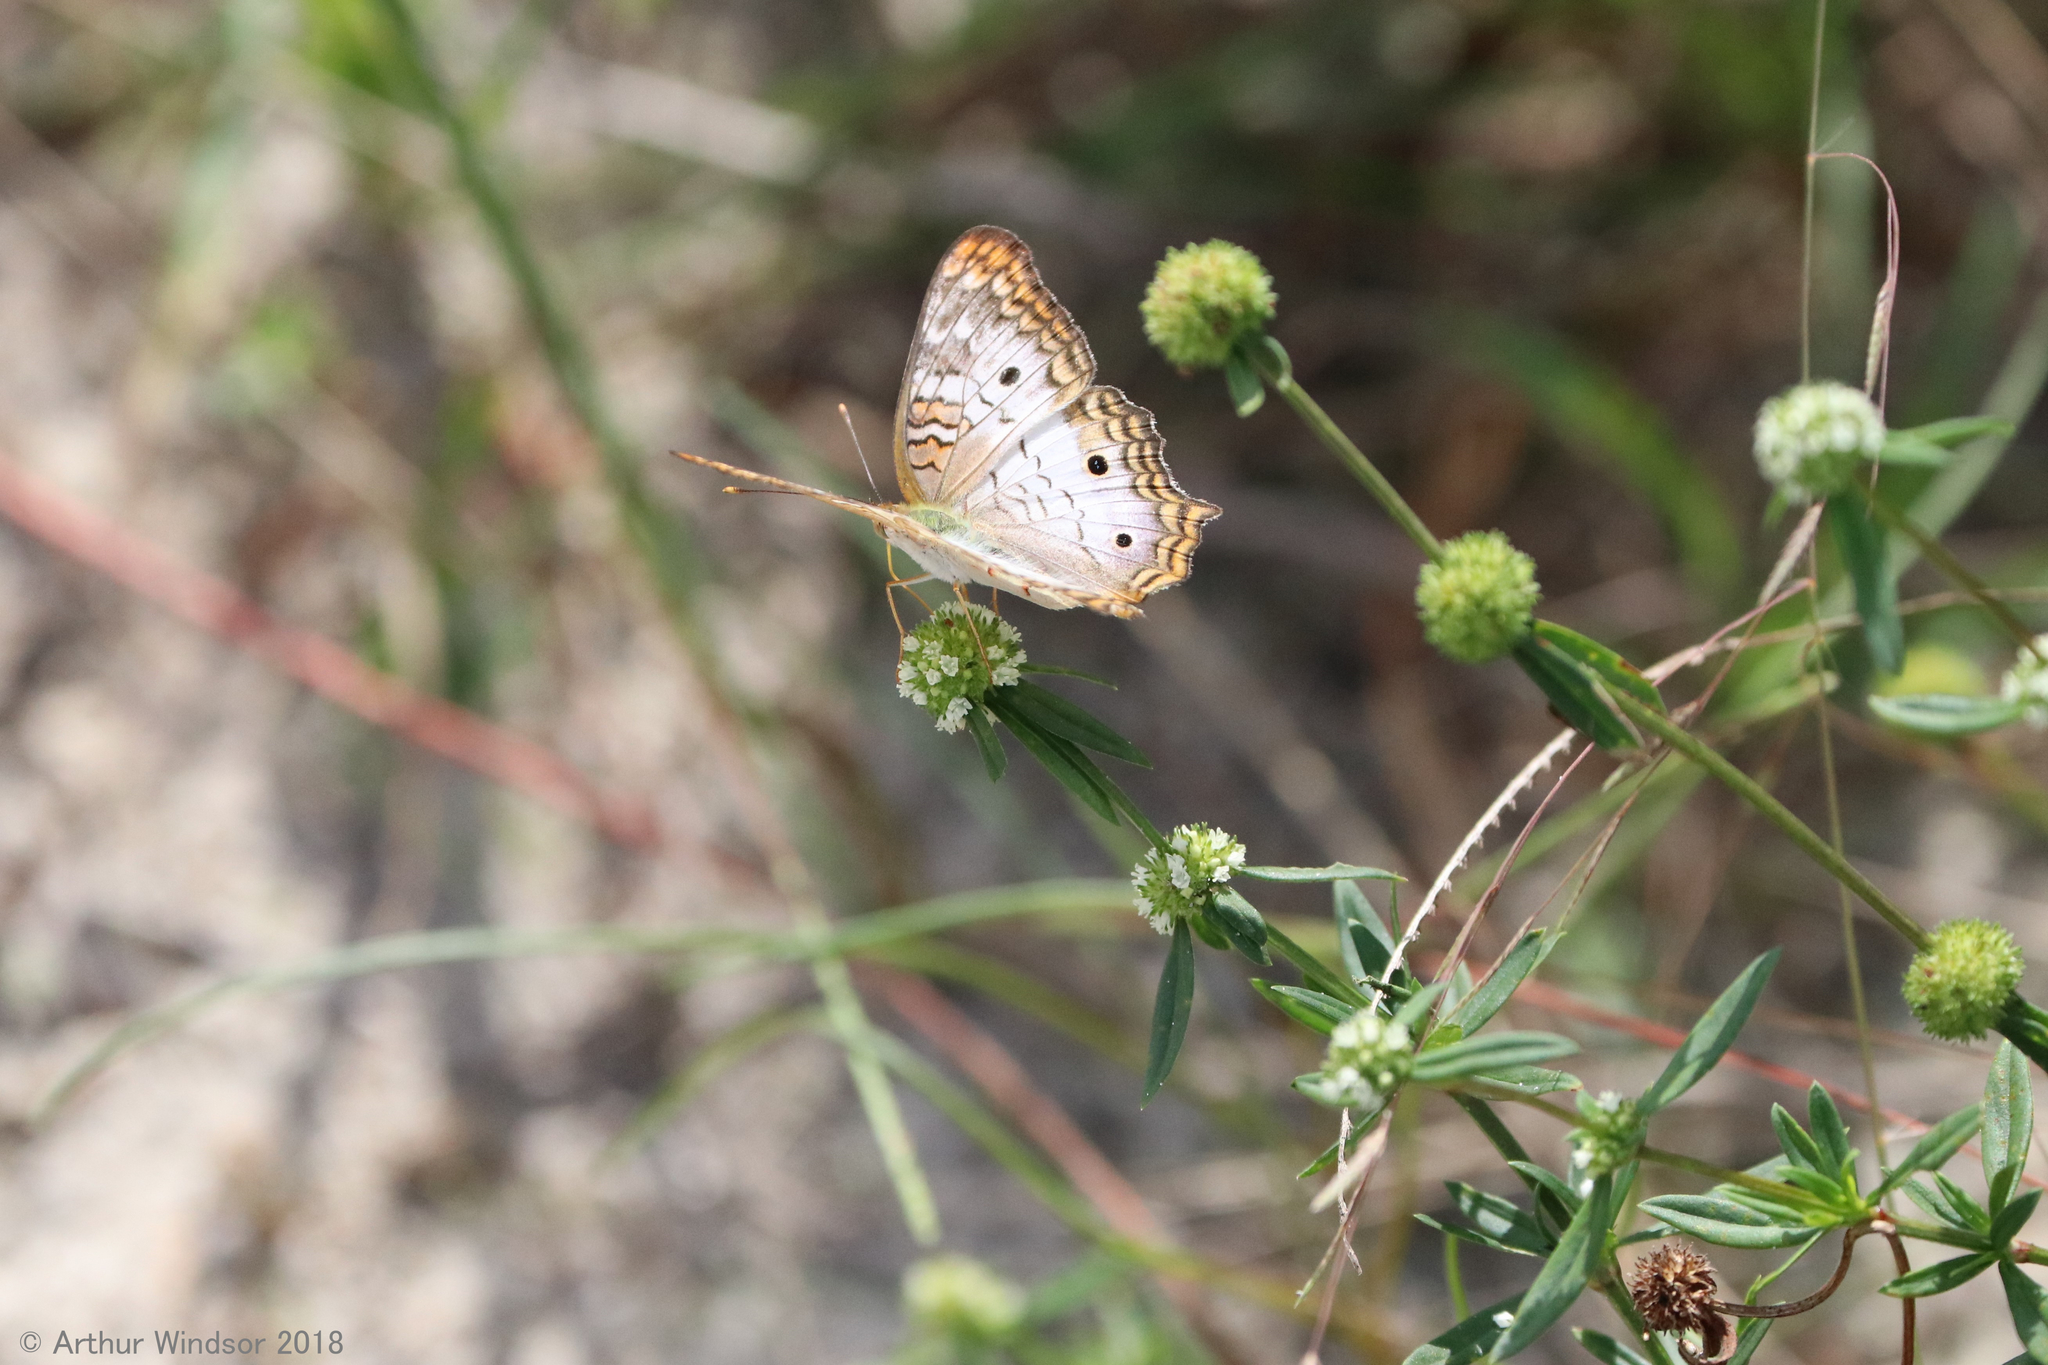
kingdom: Animalia
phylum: Arthropoda
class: Insecta
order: Lepidoptera
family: Nymphalidae
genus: Anartia
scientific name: Anartia jatrophae
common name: White peacock
